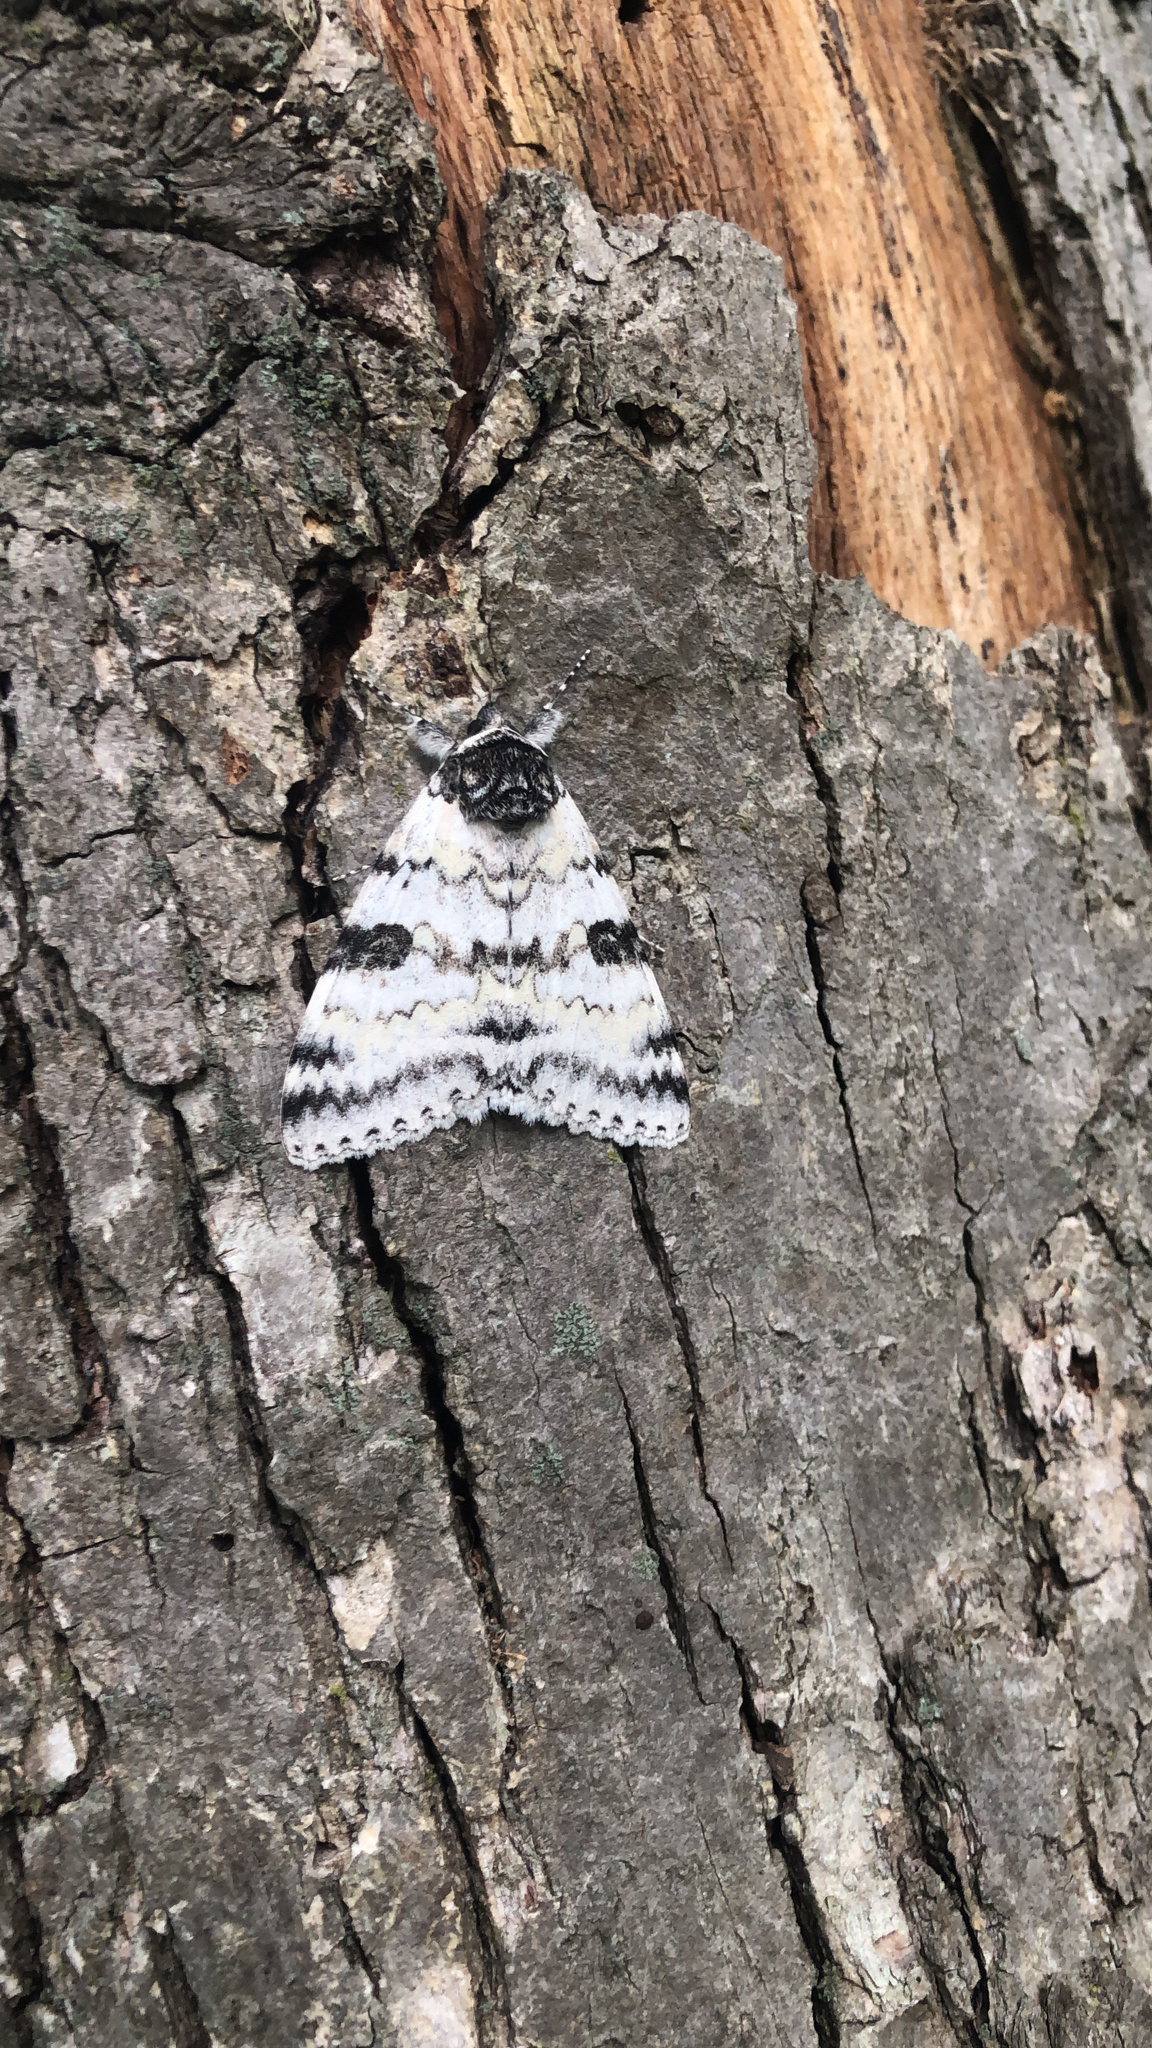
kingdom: Animalia
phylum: Arthropoda
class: Insecta
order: Lepidoptera
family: Erebidae
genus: Catocala
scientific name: Catocala relicta
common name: White underwing
